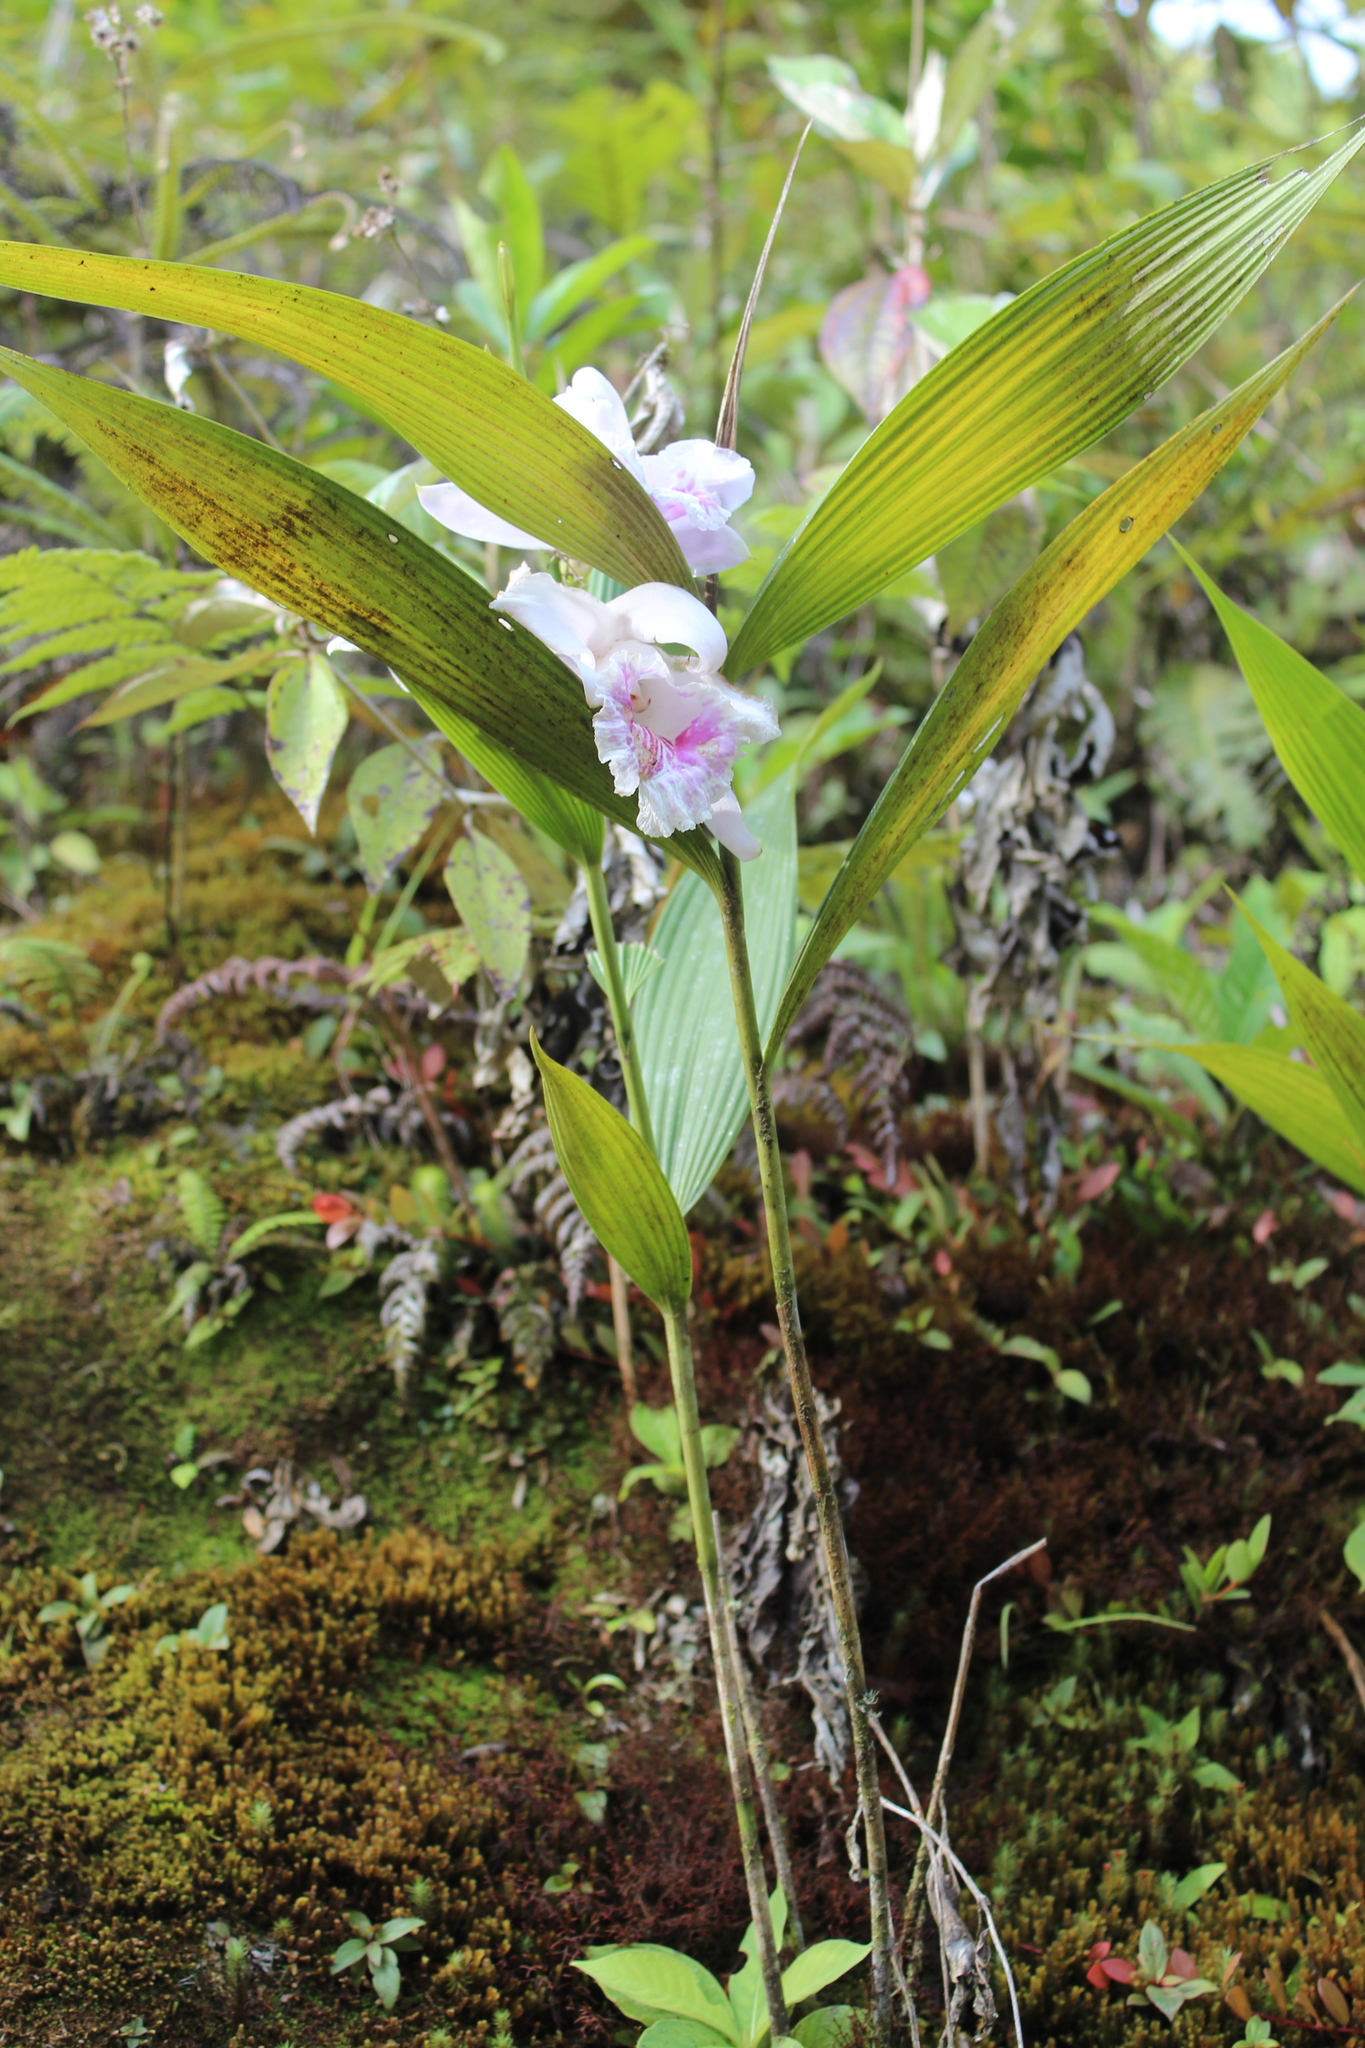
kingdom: Plantae
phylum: Tracheophyta
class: Liliopsida
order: Asparagales
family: Orchidaceae
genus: Sobralia
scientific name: Sobralia rosea
